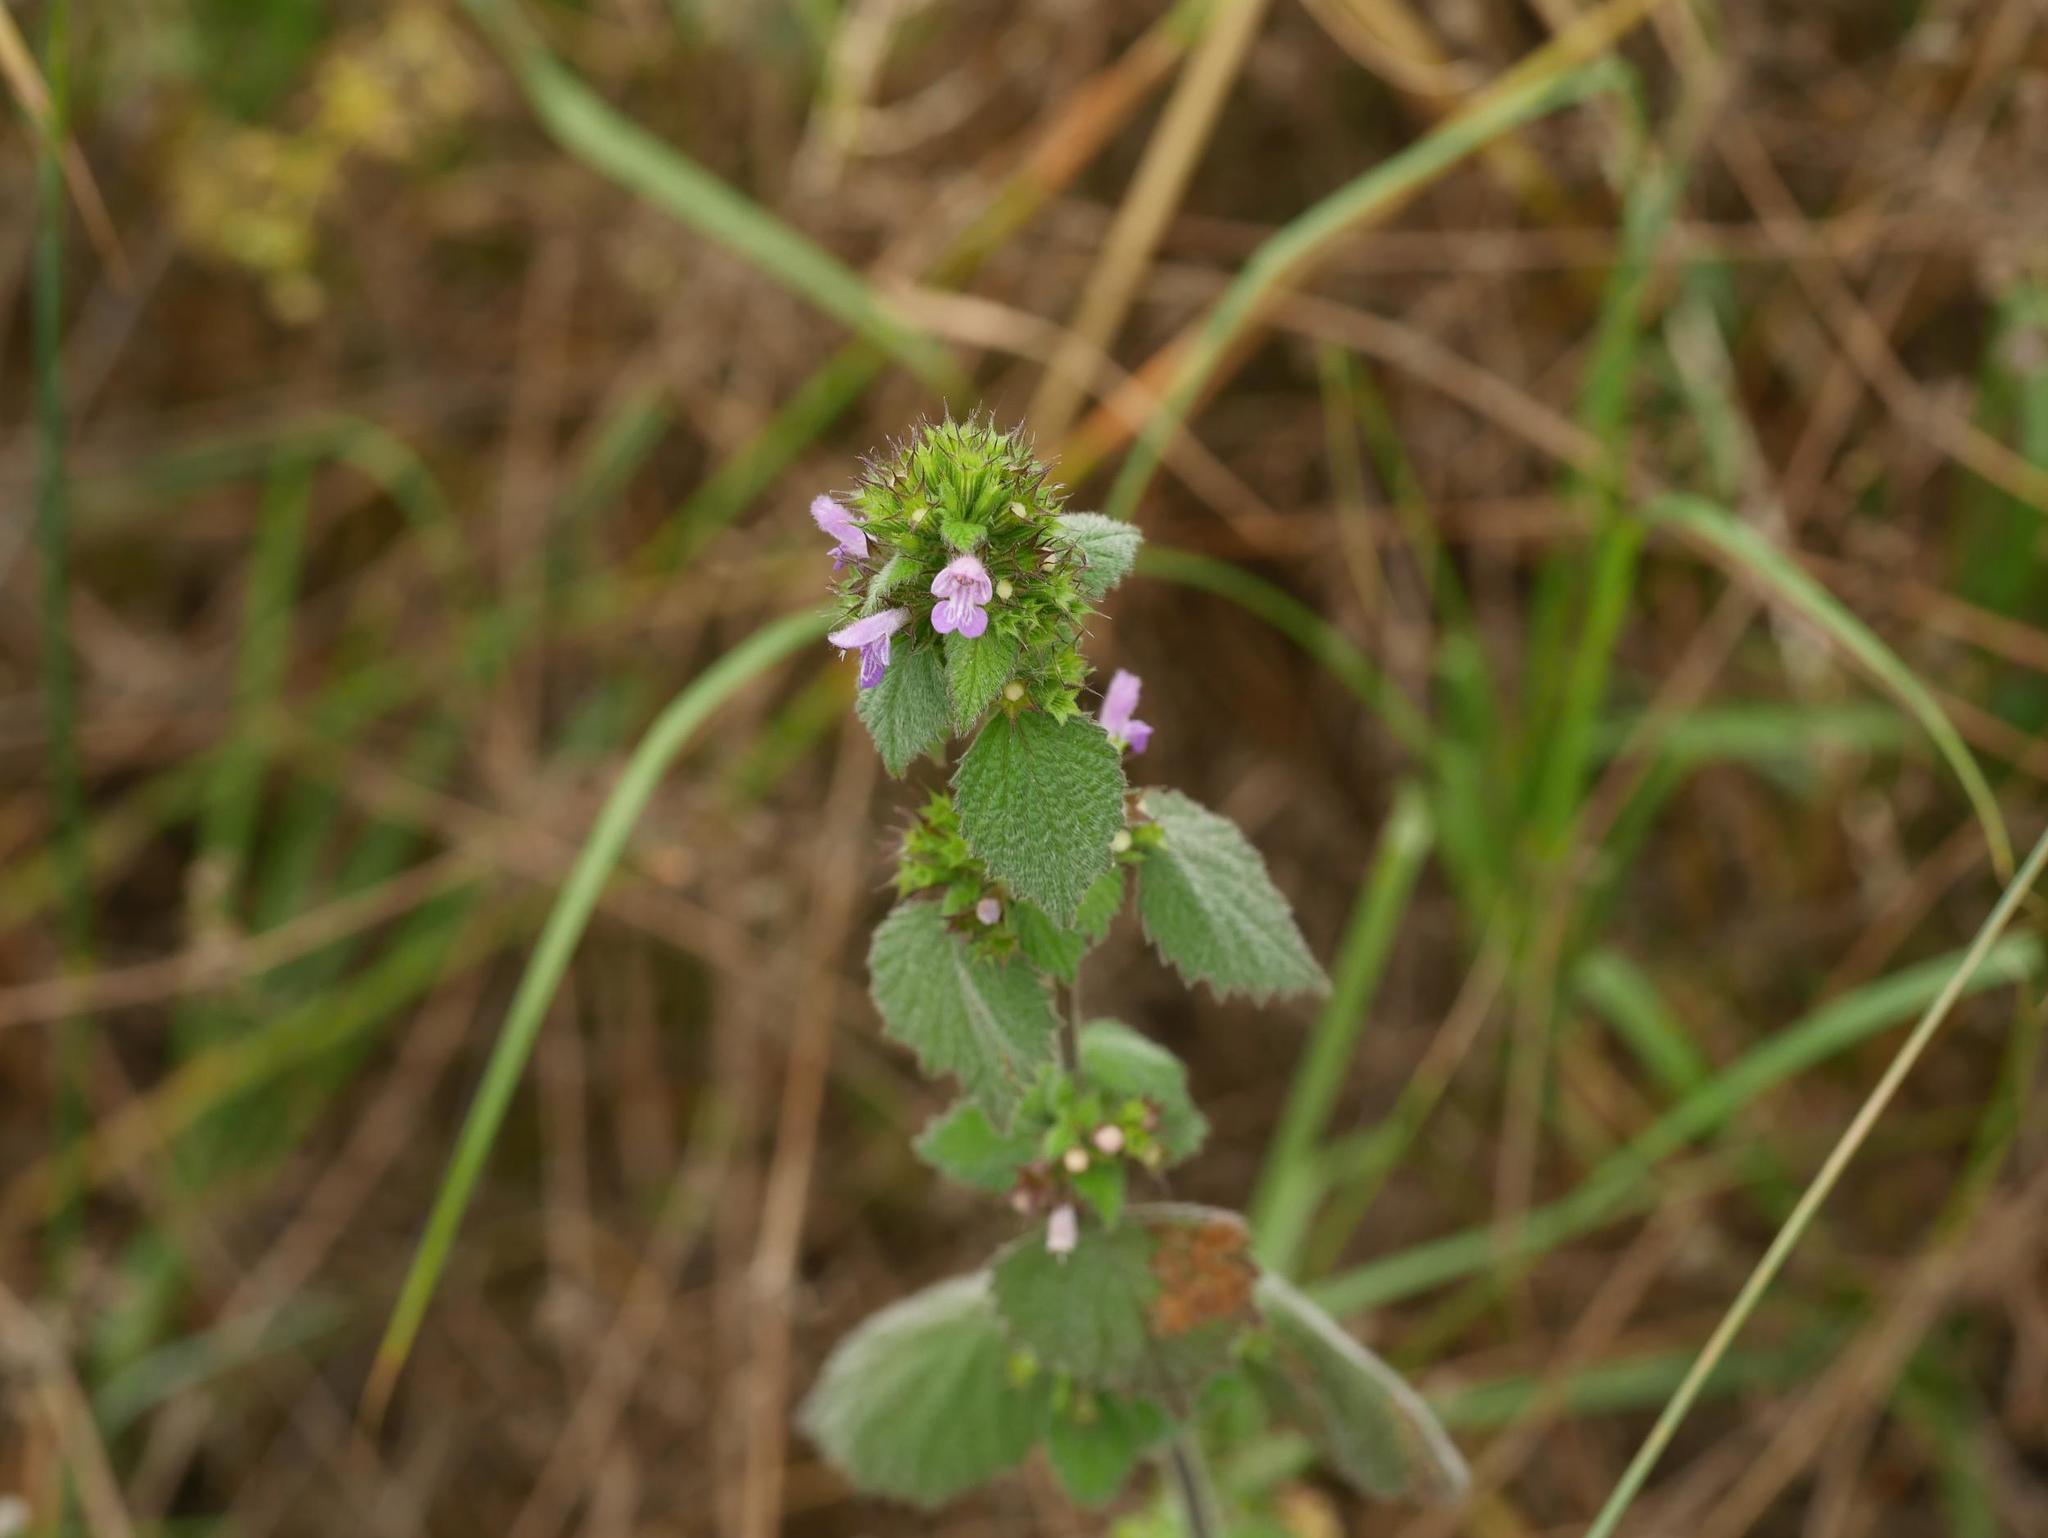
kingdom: Plantae
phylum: Tracheophyta
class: Magnoliopsida
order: Lamiales
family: Lamiaceae
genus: Ballota
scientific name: Ballota nigra
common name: Black horehound
